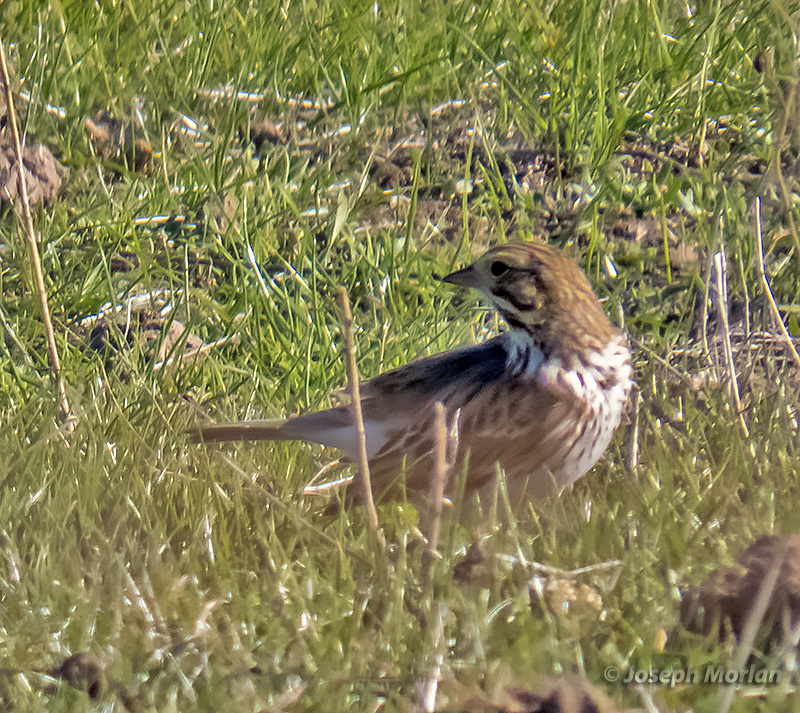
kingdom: Animalia
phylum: Chordata
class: Aves
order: Passeriformes
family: Passerellidae
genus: Passerculus
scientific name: Passerculus sandwichensis
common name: Savannah sparrow
